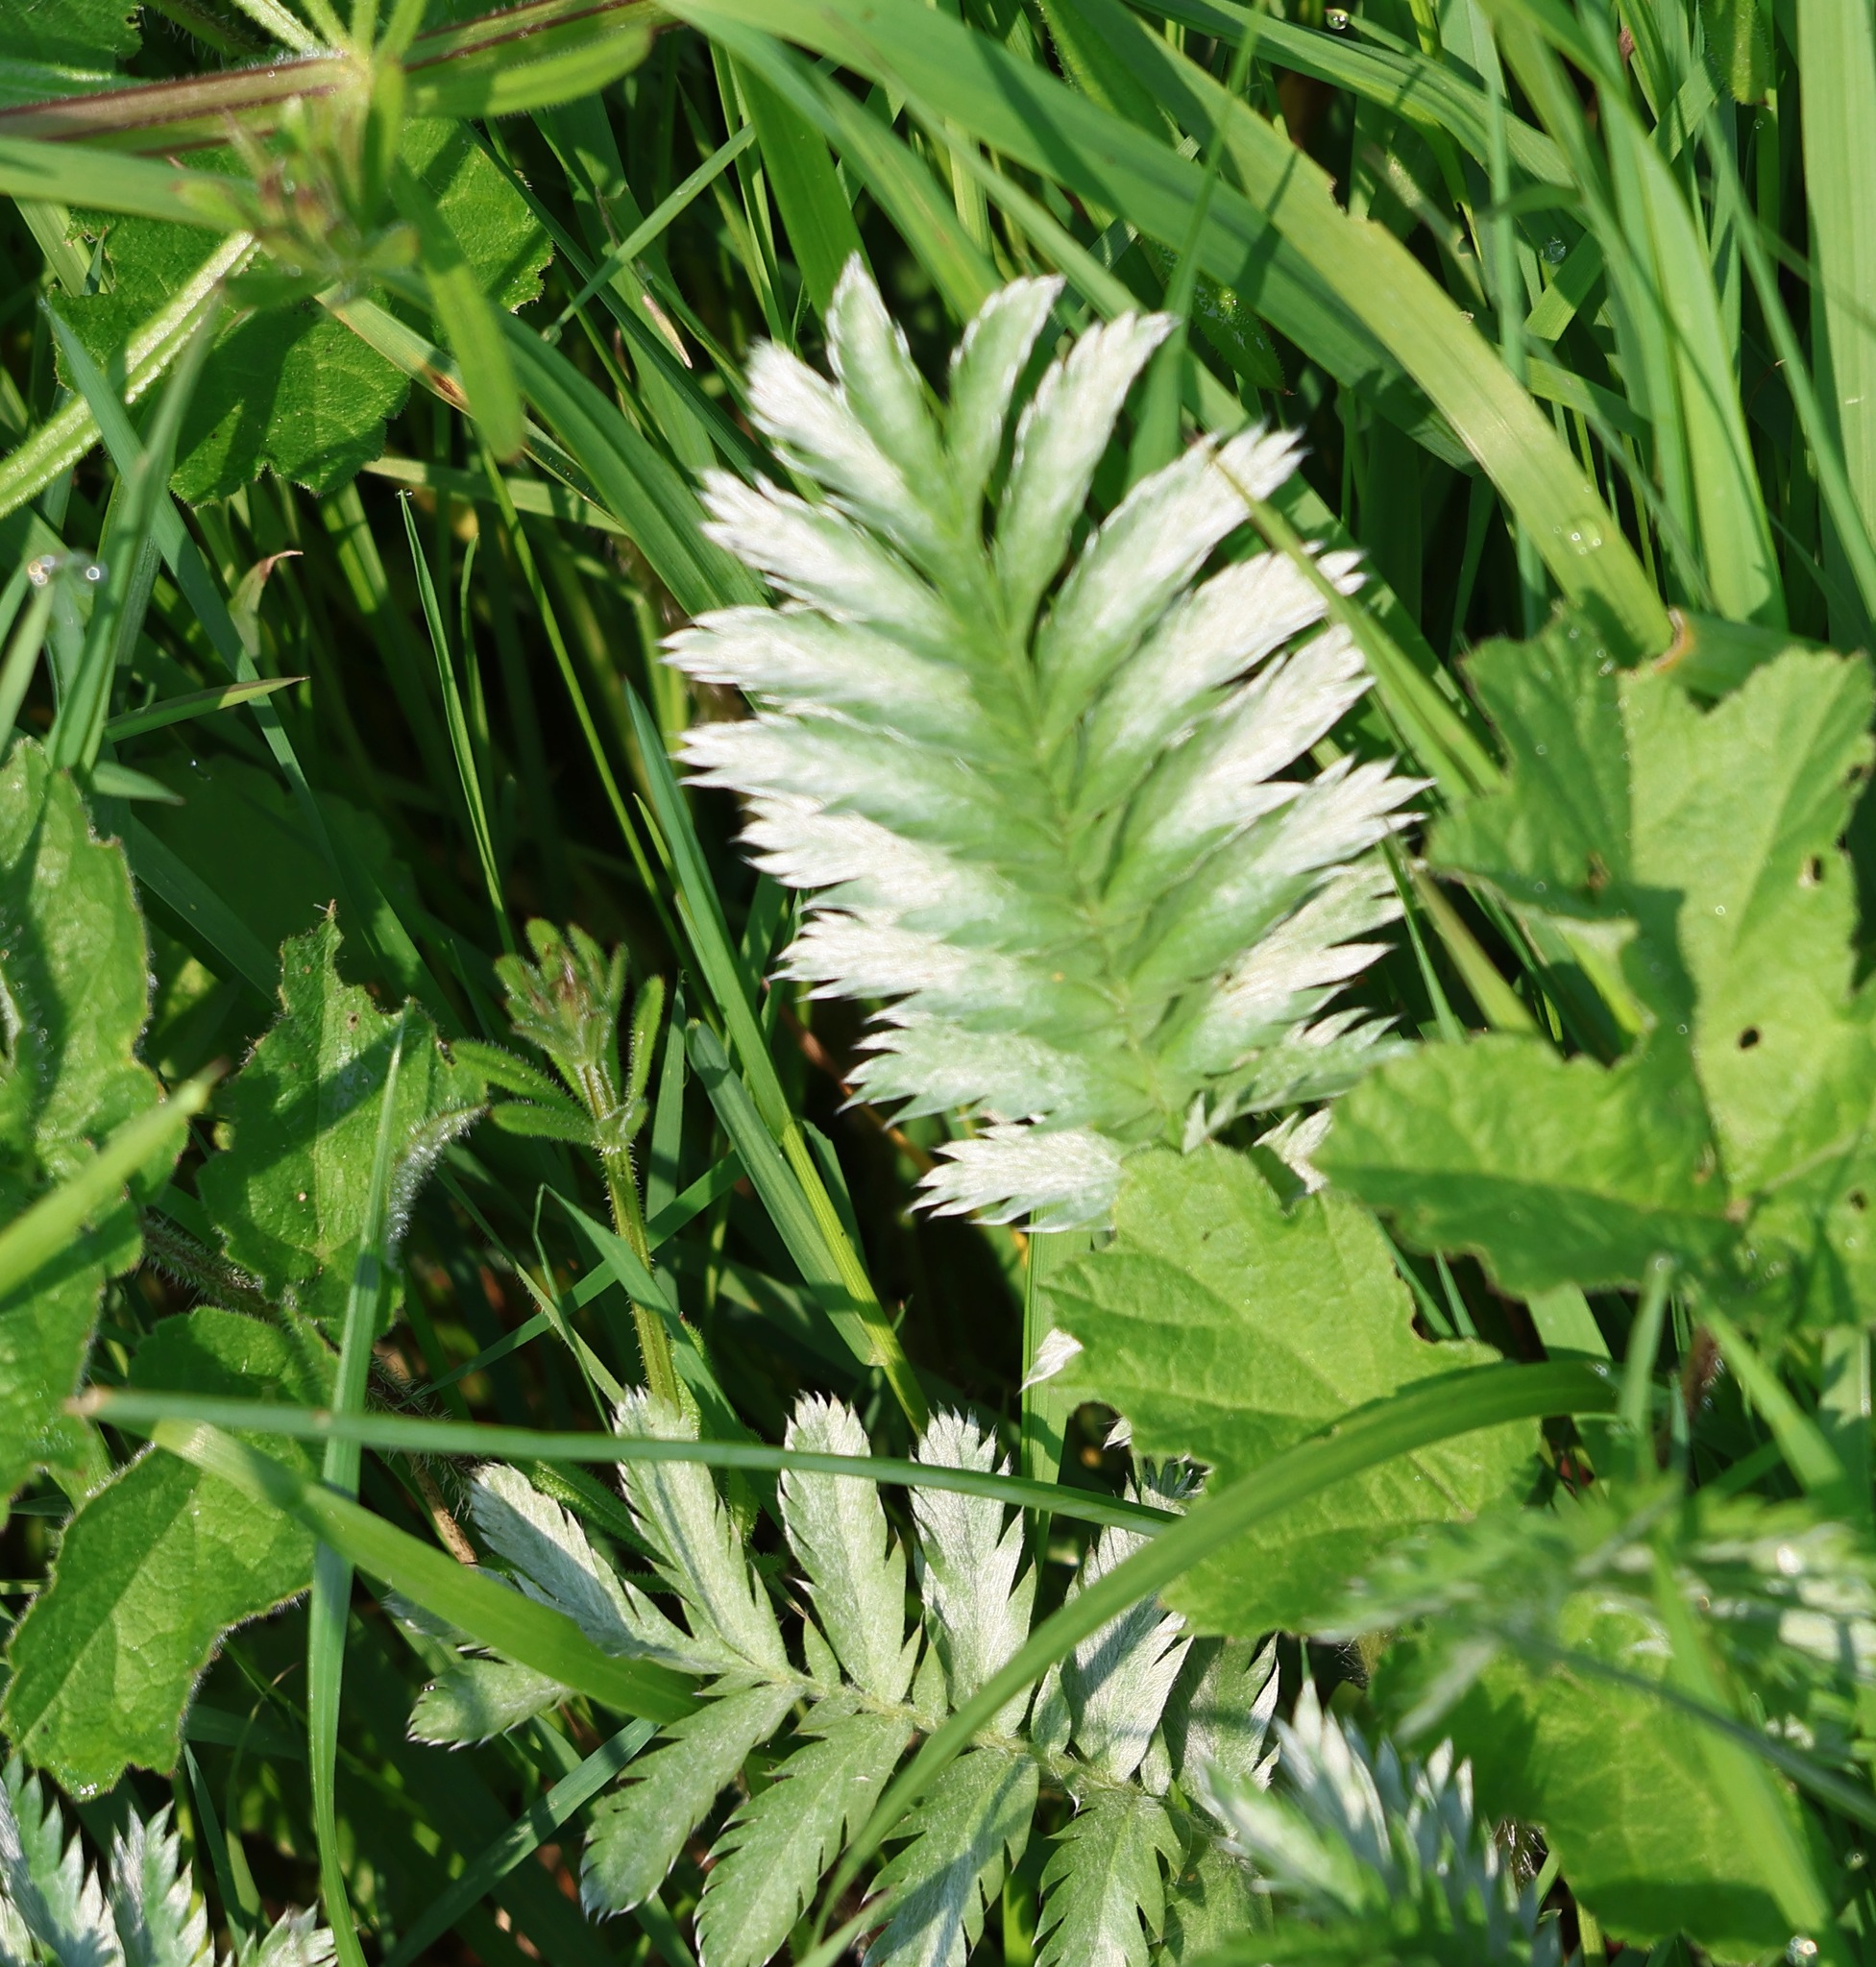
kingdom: Plantae
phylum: Tracheophyta
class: Magnoliopsida
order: Rosales
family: Rosaceae
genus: Argentina
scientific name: Argentina anserina
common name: Common silverweed
